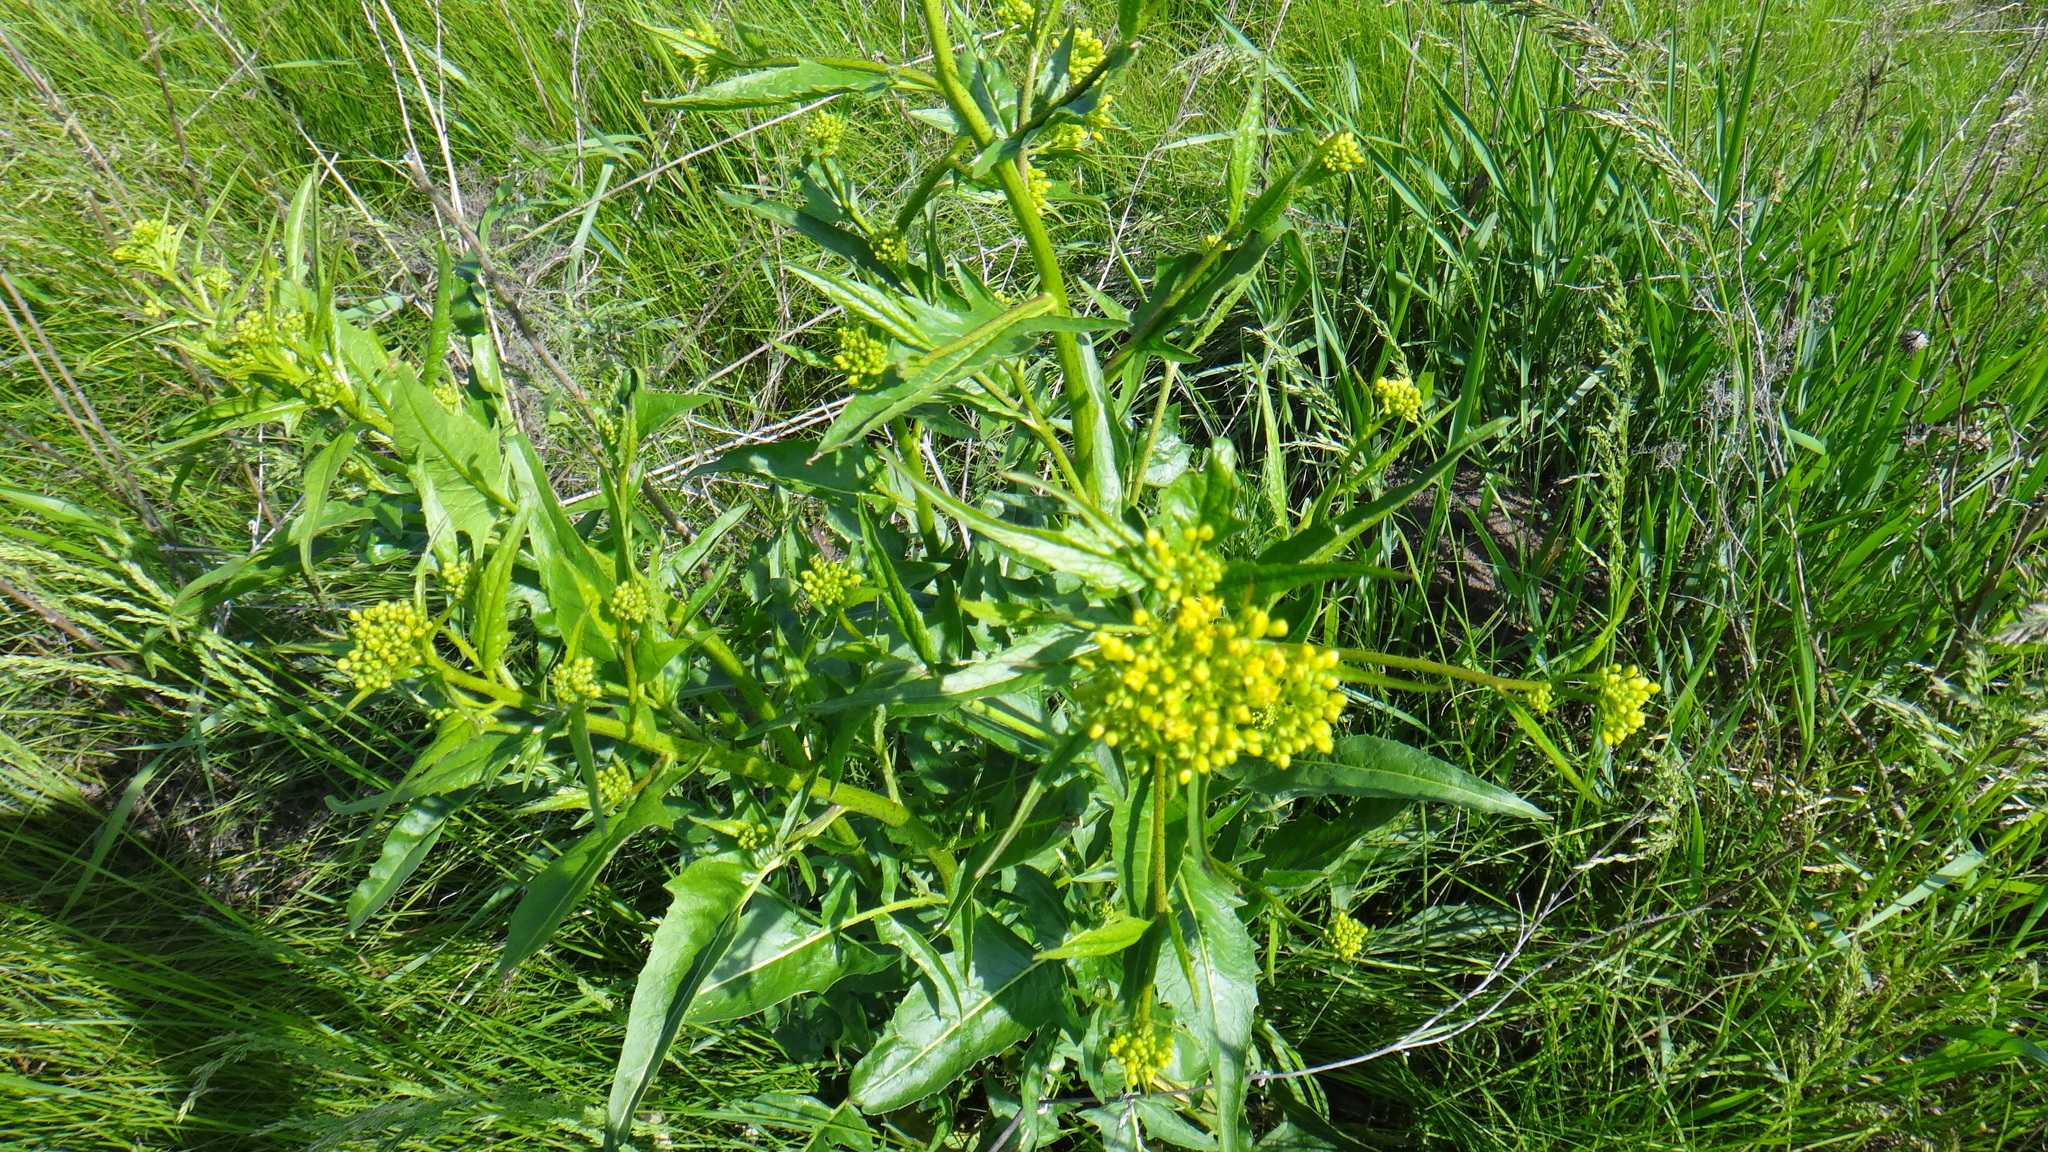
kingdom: Plantae
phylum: Tracheophyta
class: Magnoliopsida
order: Brassicales
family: Brassicaceae
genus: Bunias
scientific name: Bunias orientalis
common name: Warty-cabbage
